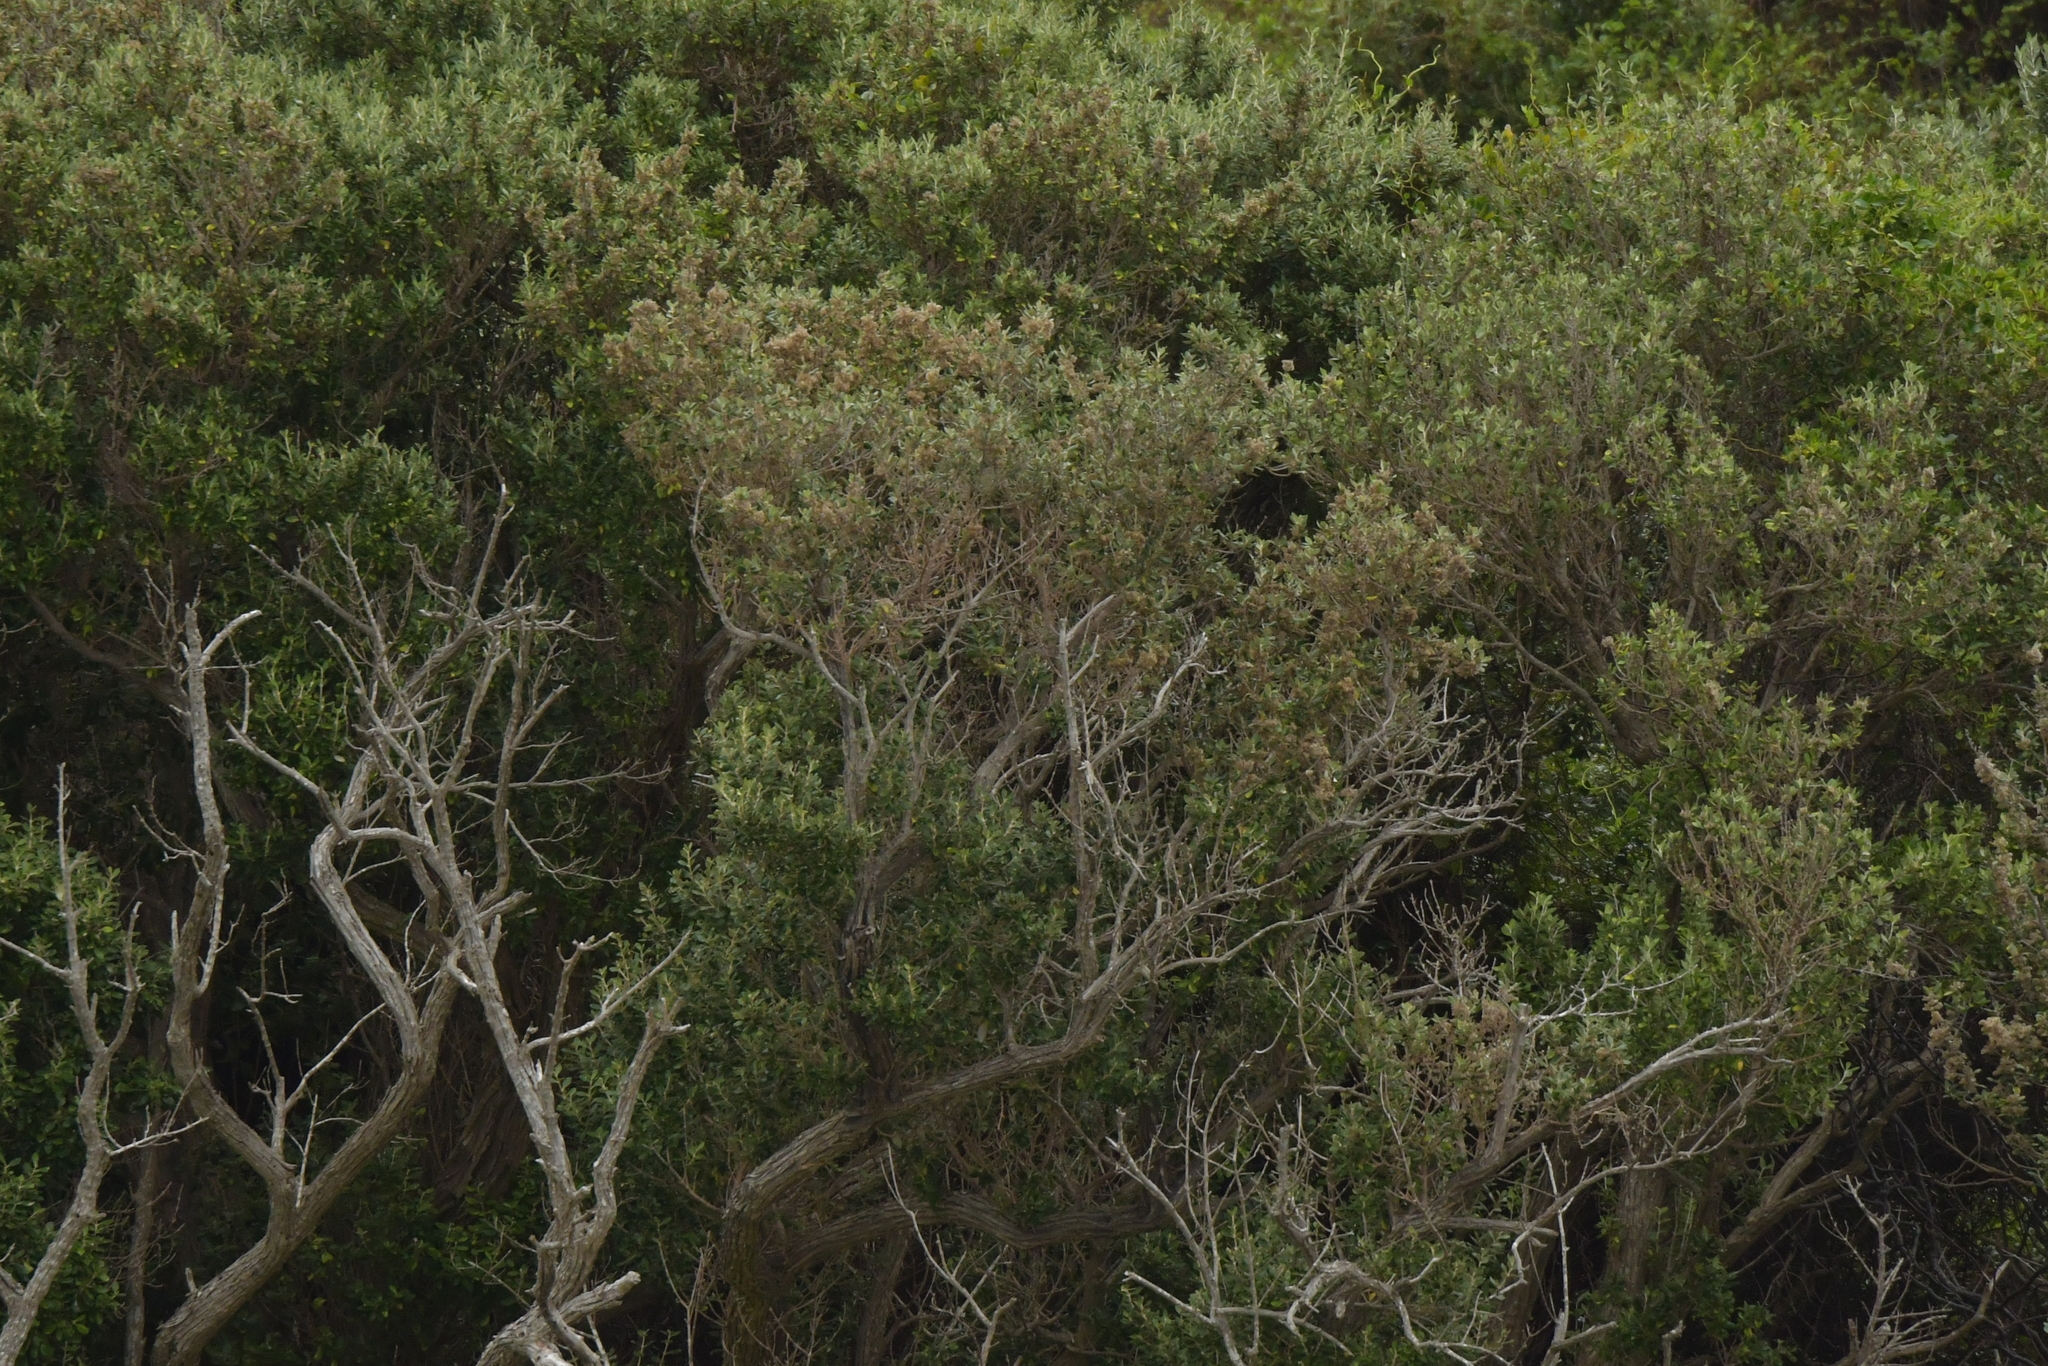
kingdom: Plantae
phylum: Tracheophyta
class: Magnoliopsida
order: Asterales
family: Asteraceae
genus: Olearia
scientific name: Olearia traversiorum
